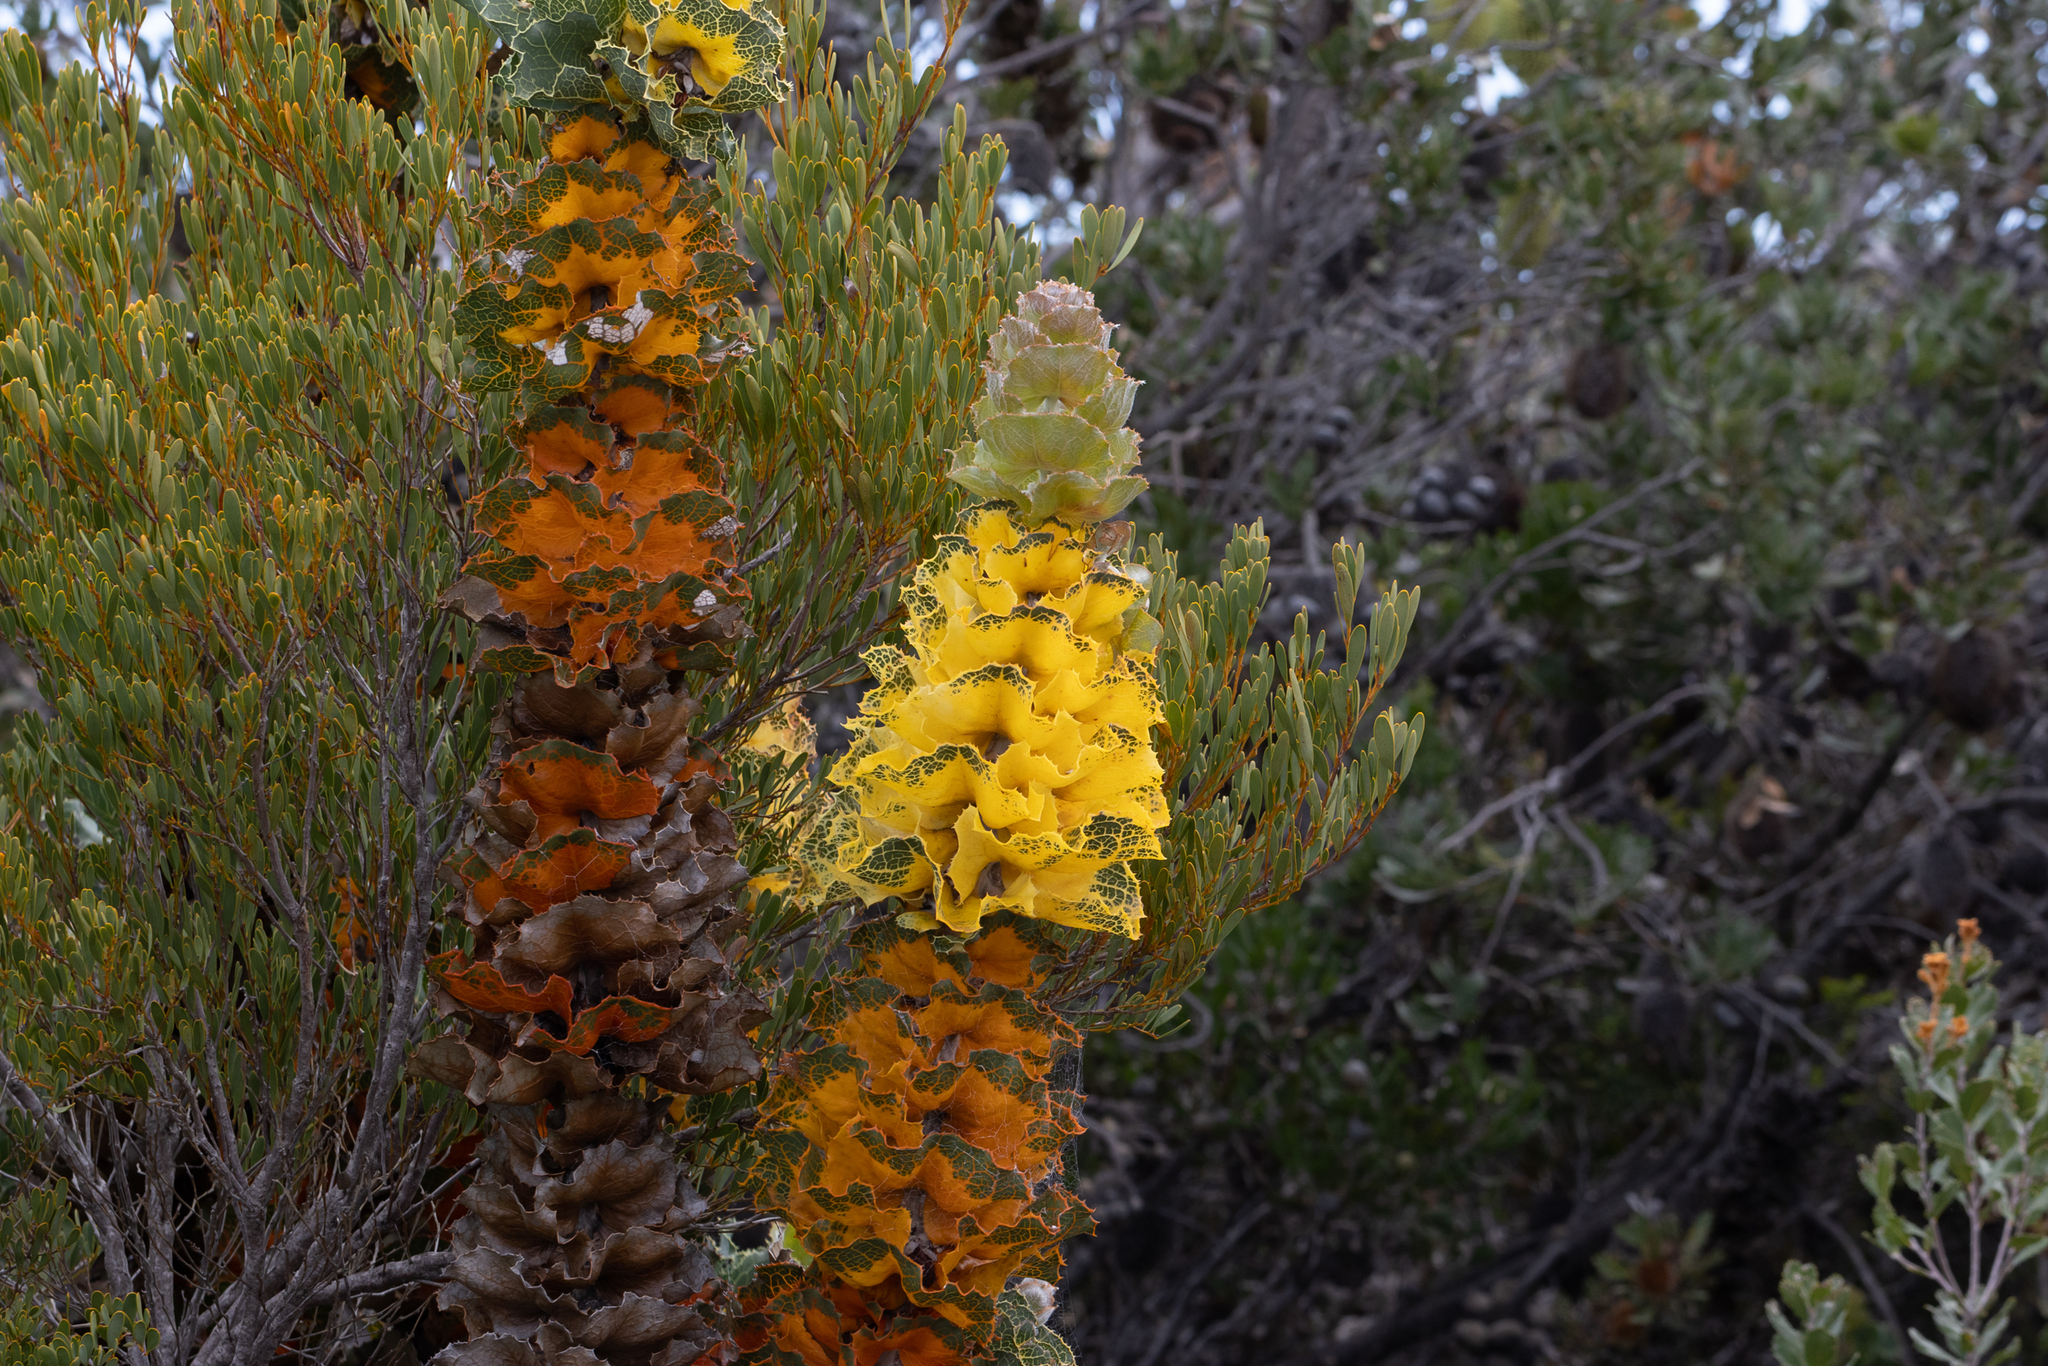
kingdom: Plantae
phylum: Tracheophyta
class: Magnoliopsida
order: Proteales
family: Proteaceae
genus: Hakea
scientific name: Hakea victoria
